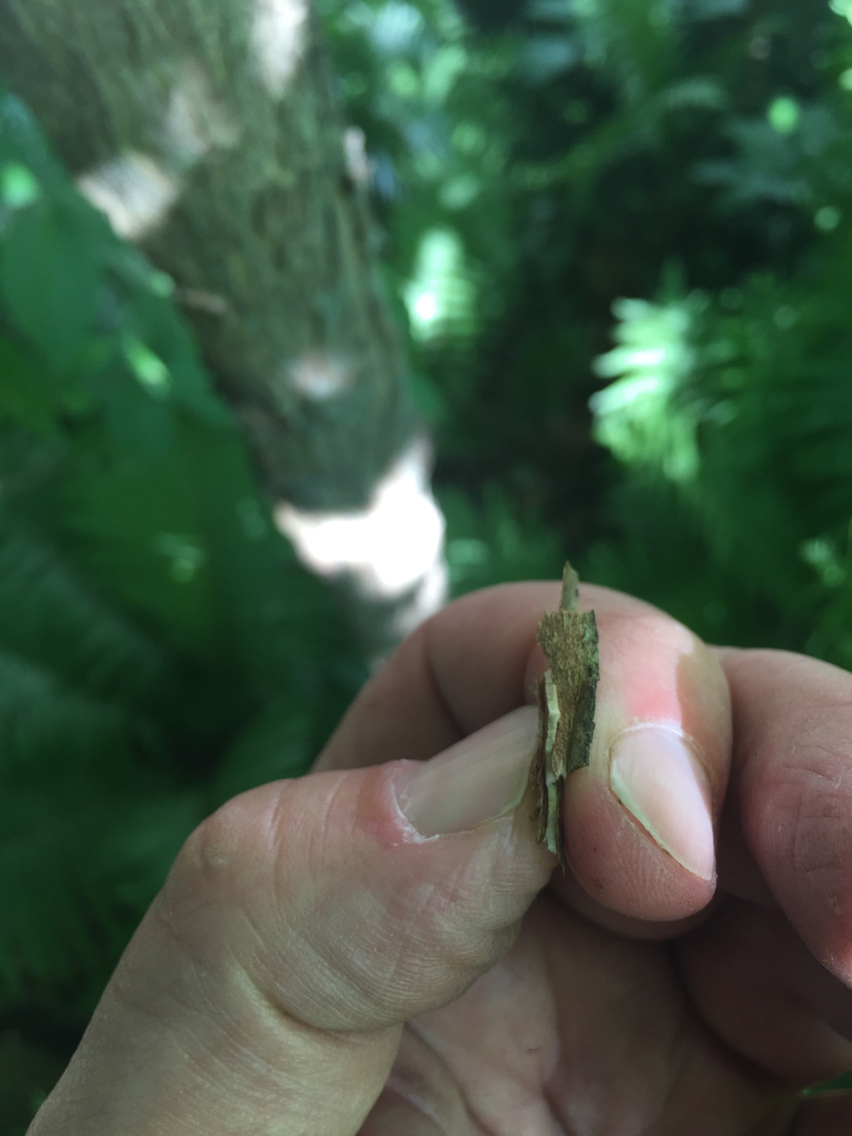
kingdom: Plantae
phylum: Tracheophyta
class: Magnoliopsida
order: Rosales
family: Ulmaceae
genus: Ulmus
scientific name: Ulmus americana
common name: American elm
